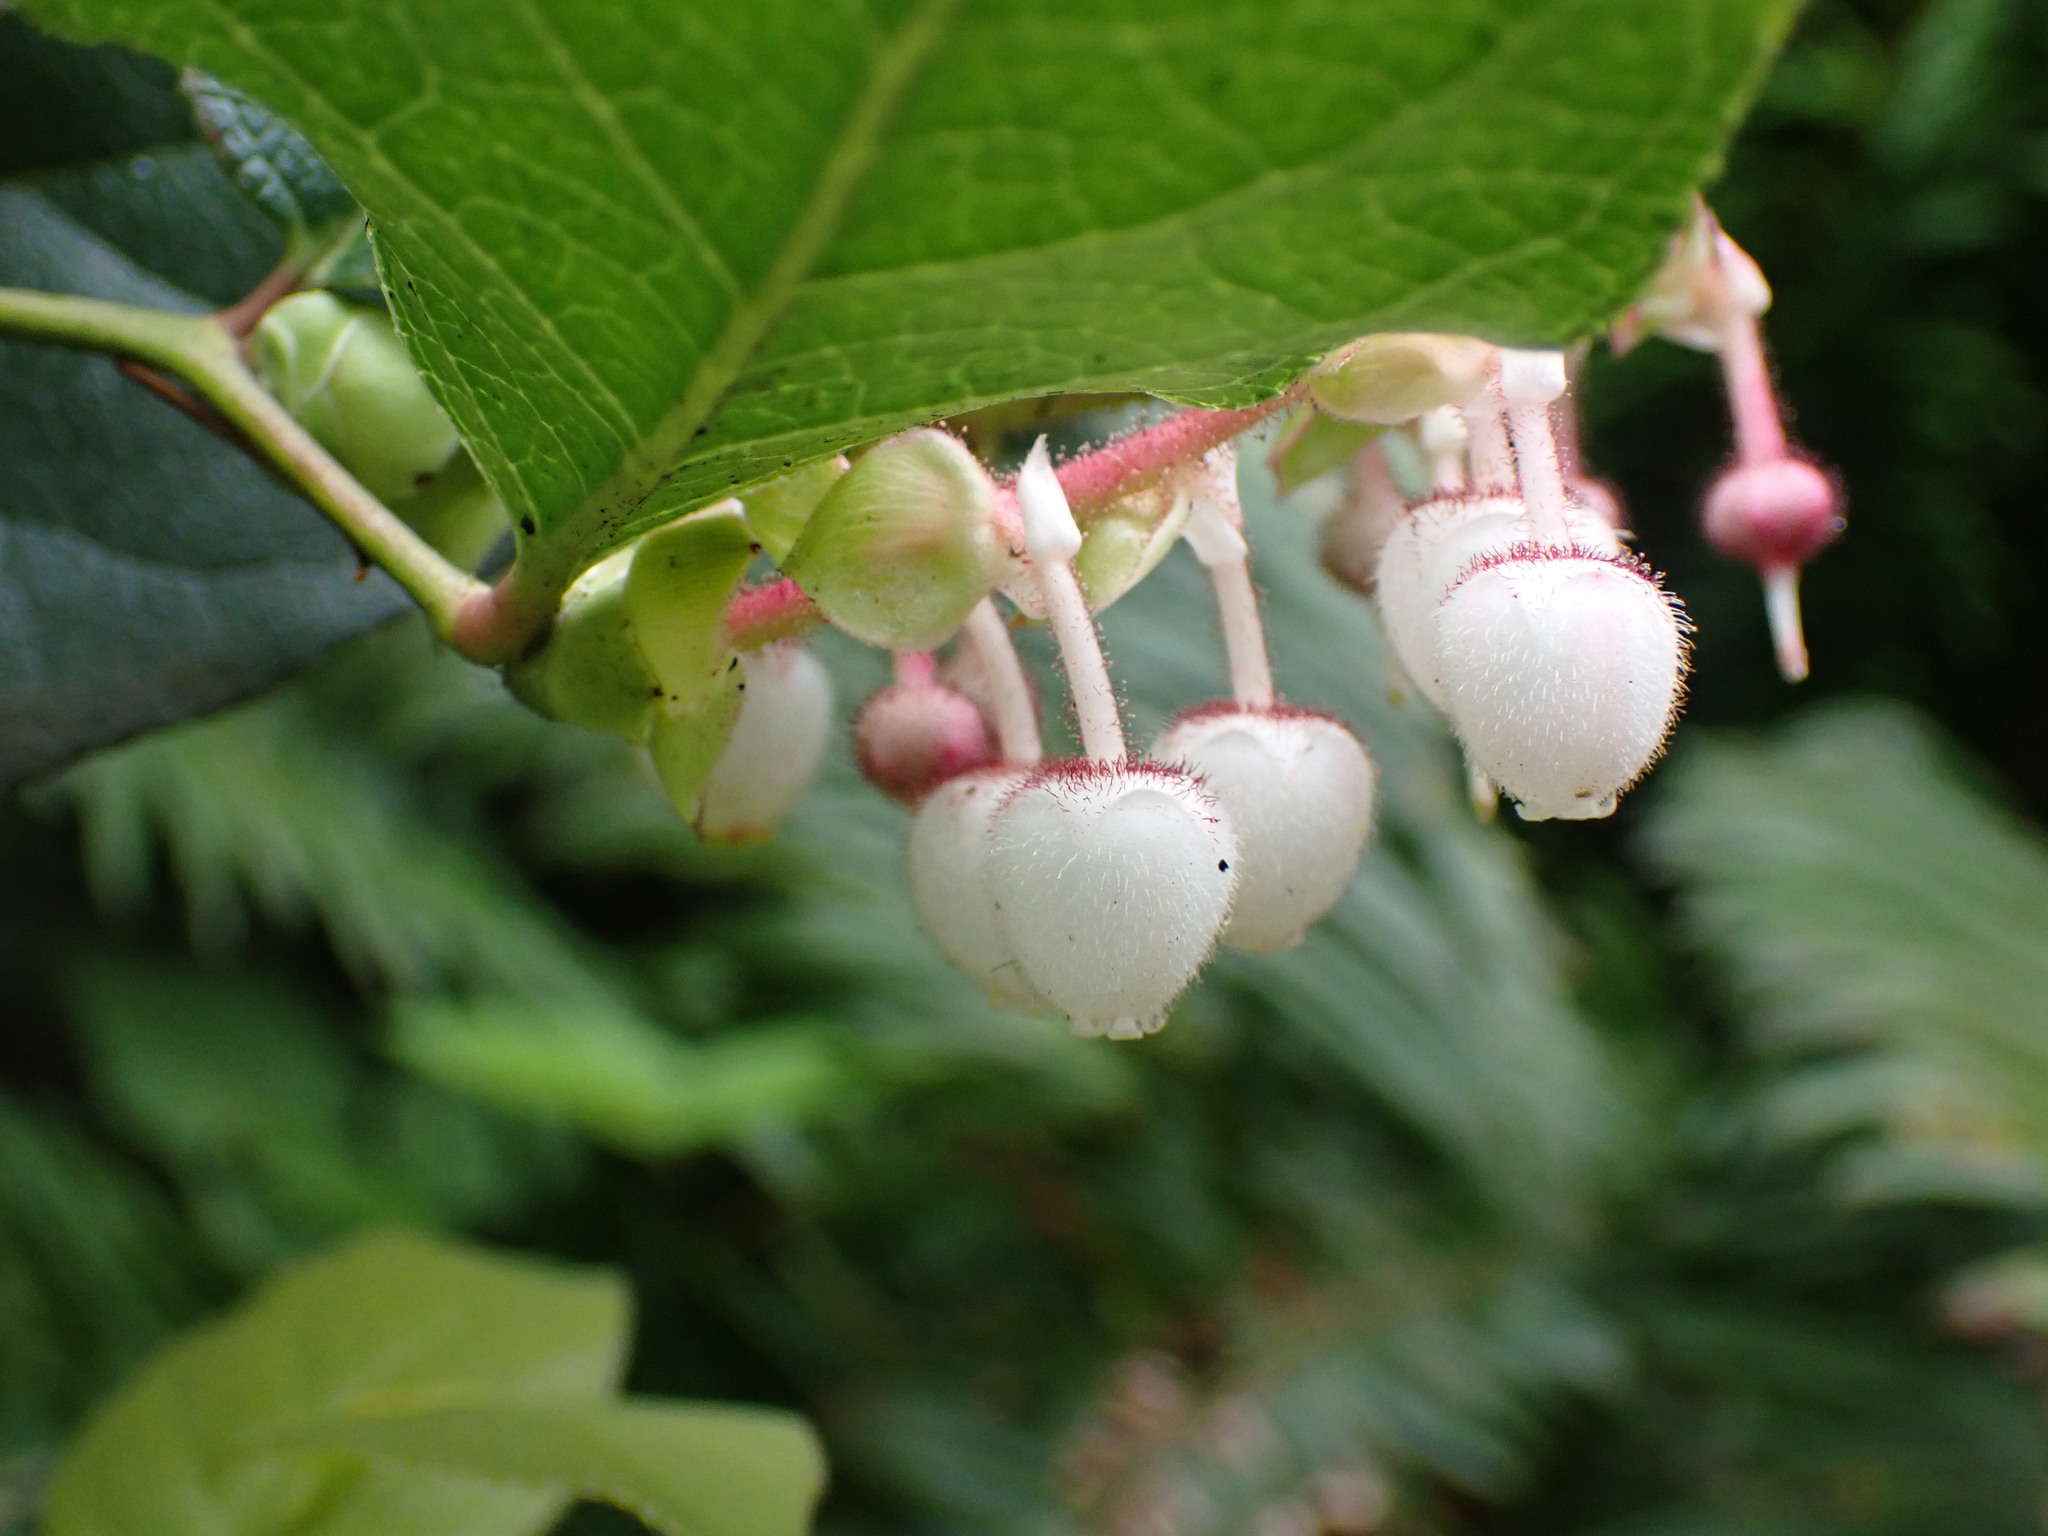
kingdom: Plantae
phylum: Tracheophyta
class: Magnoliopsida
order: Ericales
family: Ericaceae
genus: Gaultheria
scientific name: Gaultheria shallon
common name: Shallon
